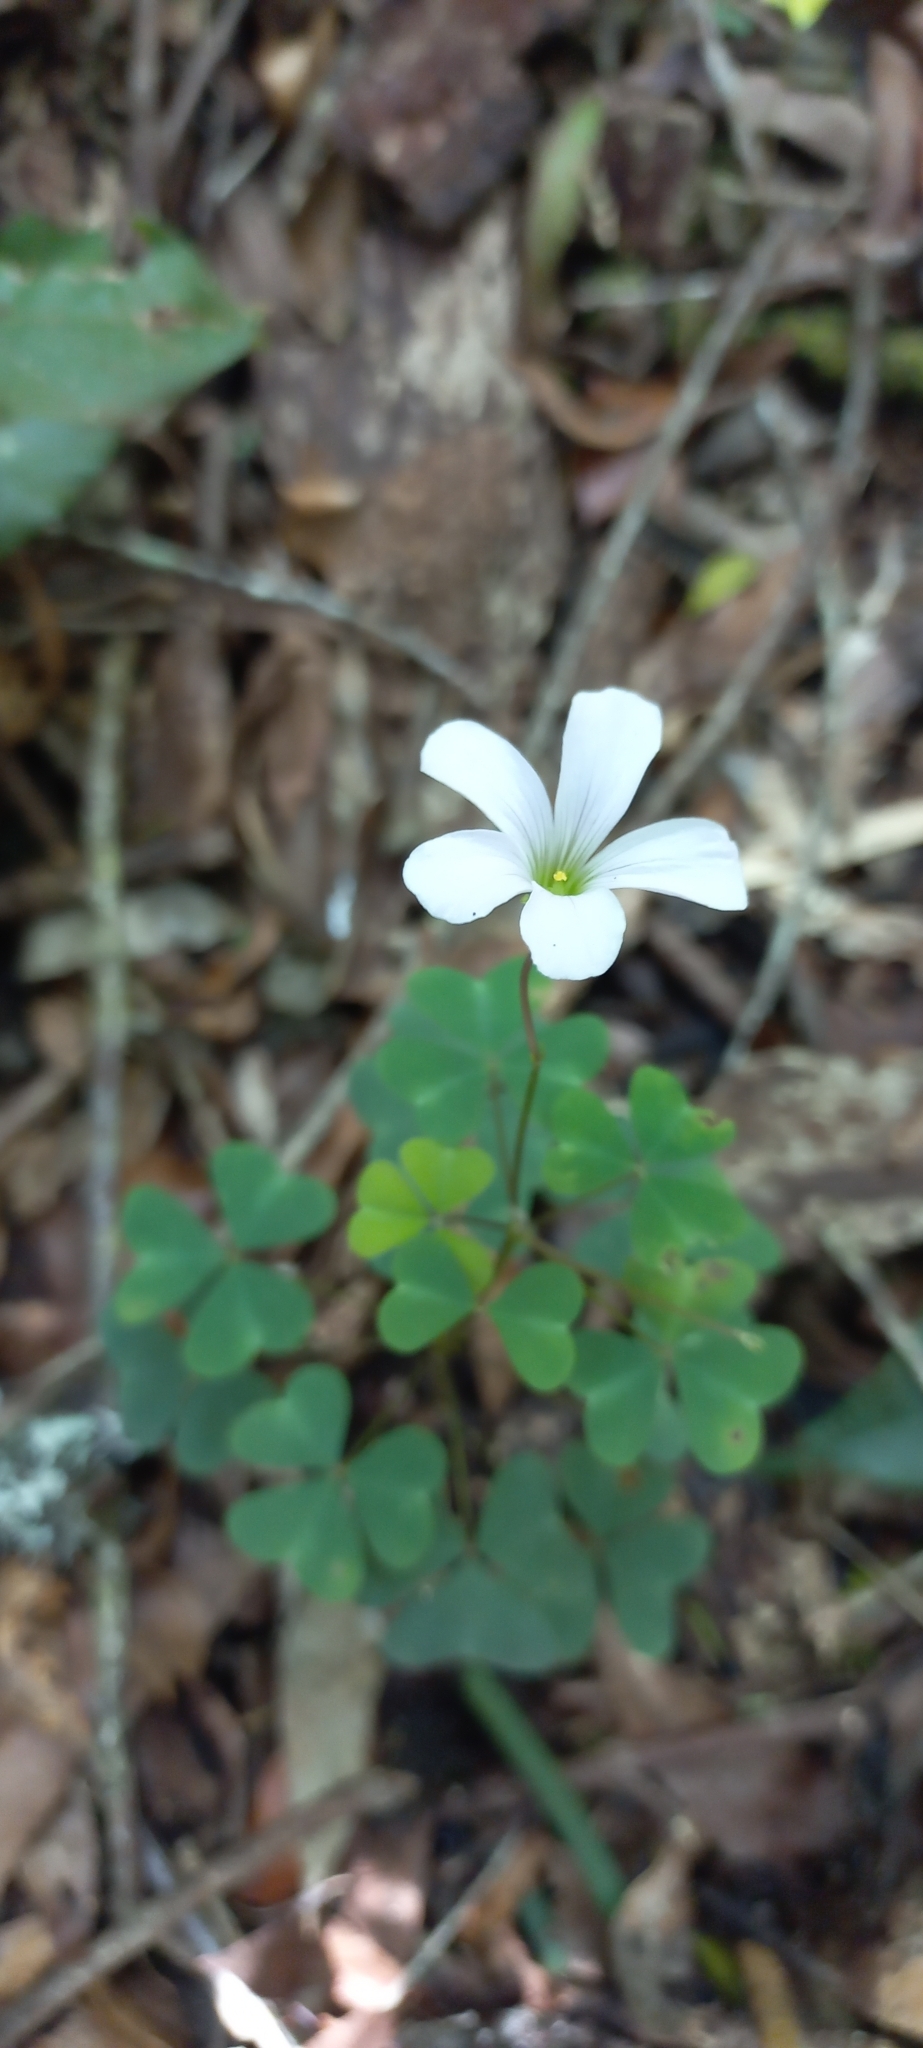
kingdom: Plantae
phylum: Tracheophyta
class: Magnoliopsida
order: Oxalidales
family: Oxalidaceae
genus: Oxalis
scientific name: Oxalis incarnata
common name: Pale pink-sorrel
